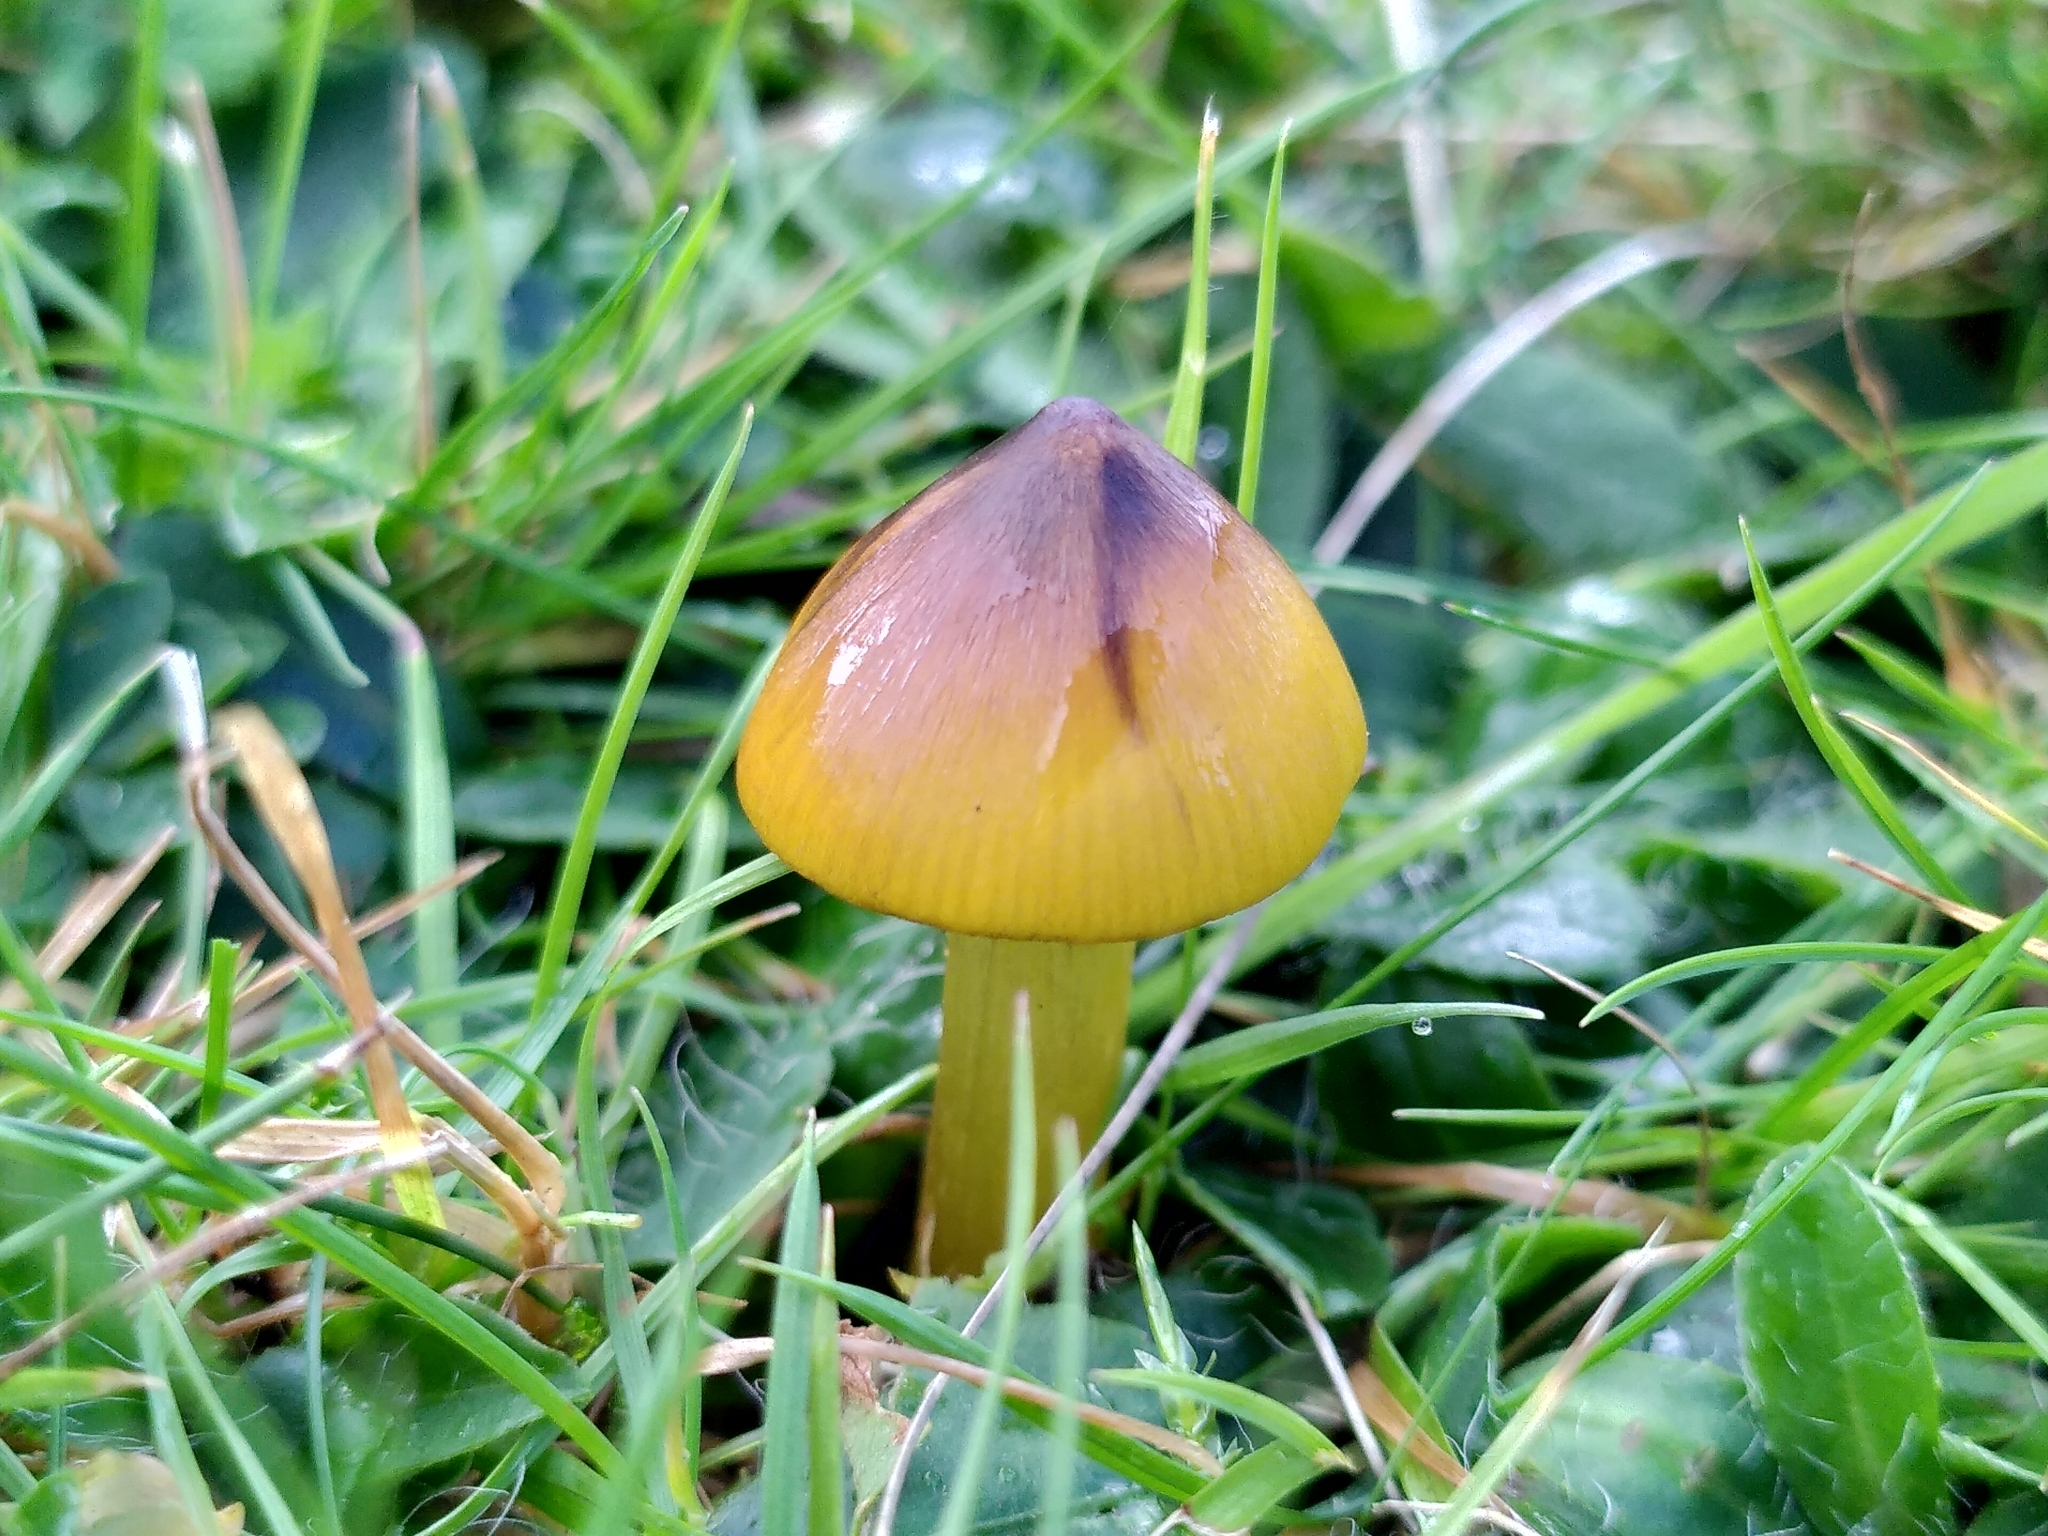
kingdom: Fungi
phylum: Basidiomycota
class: Agaricomycetes
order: Agaricales
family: Hygrophoraceae
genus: Hygrocybe
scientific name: Hygrocybe conica
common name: Blackening wax-cap
